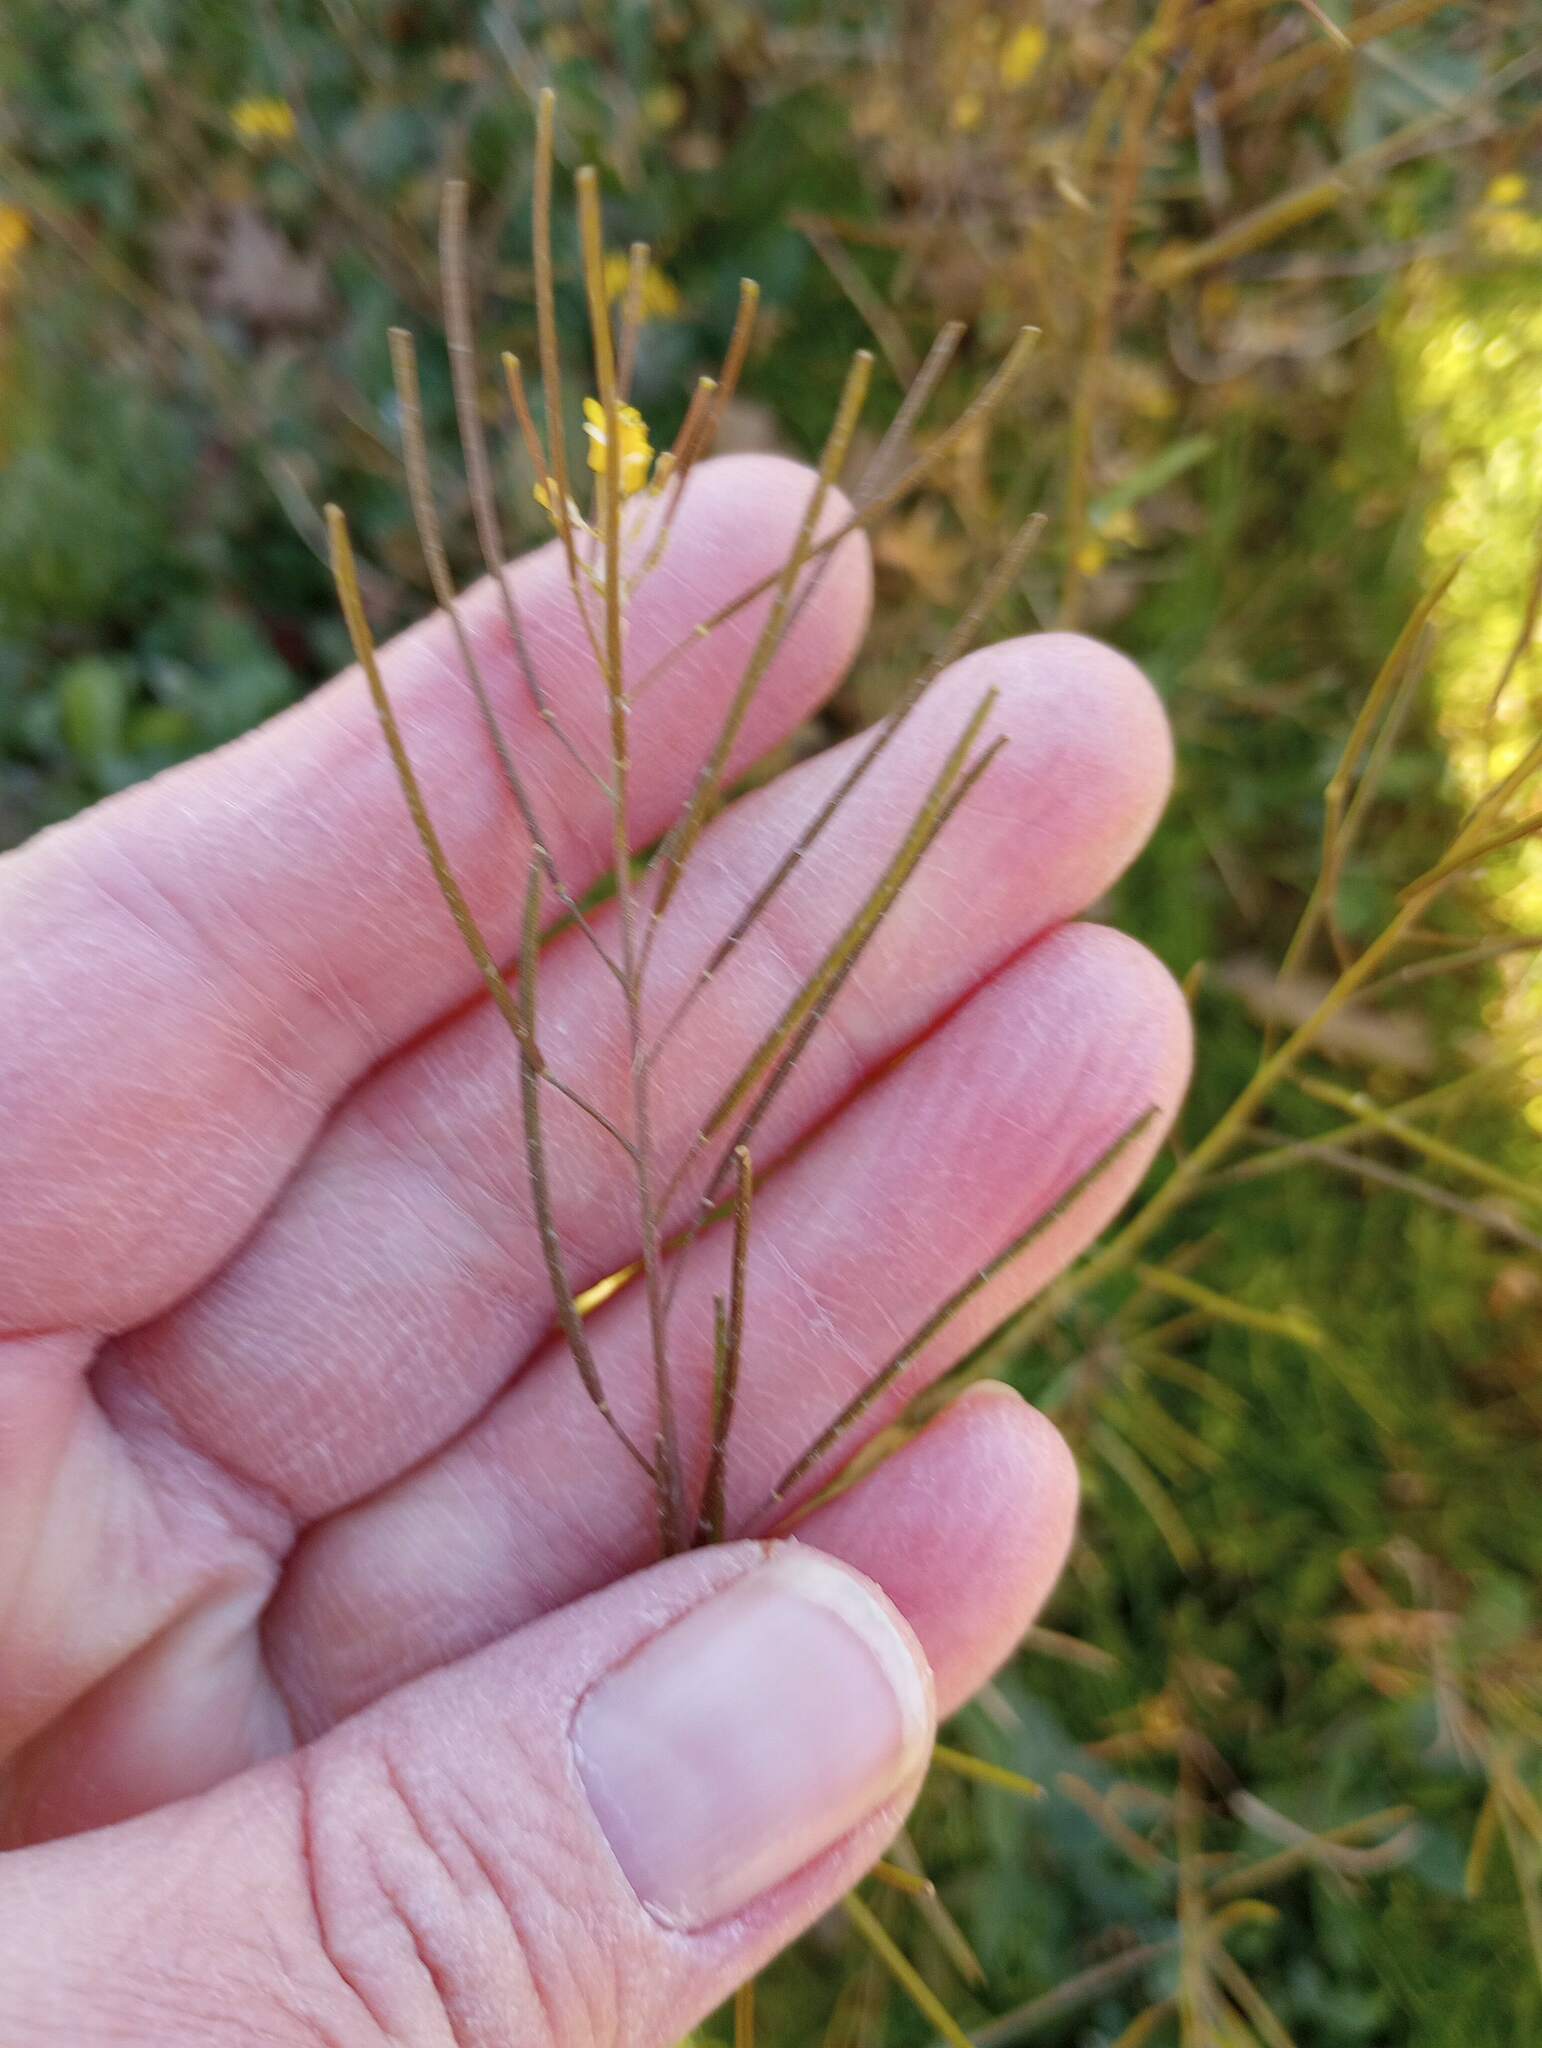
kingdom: Plantae
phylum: Tracheophyta
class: Magnoliopsida
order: Brassicales
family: Brassicaceae
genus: Sisymbrium
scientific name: Sisymbrium irio
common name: London rocket
